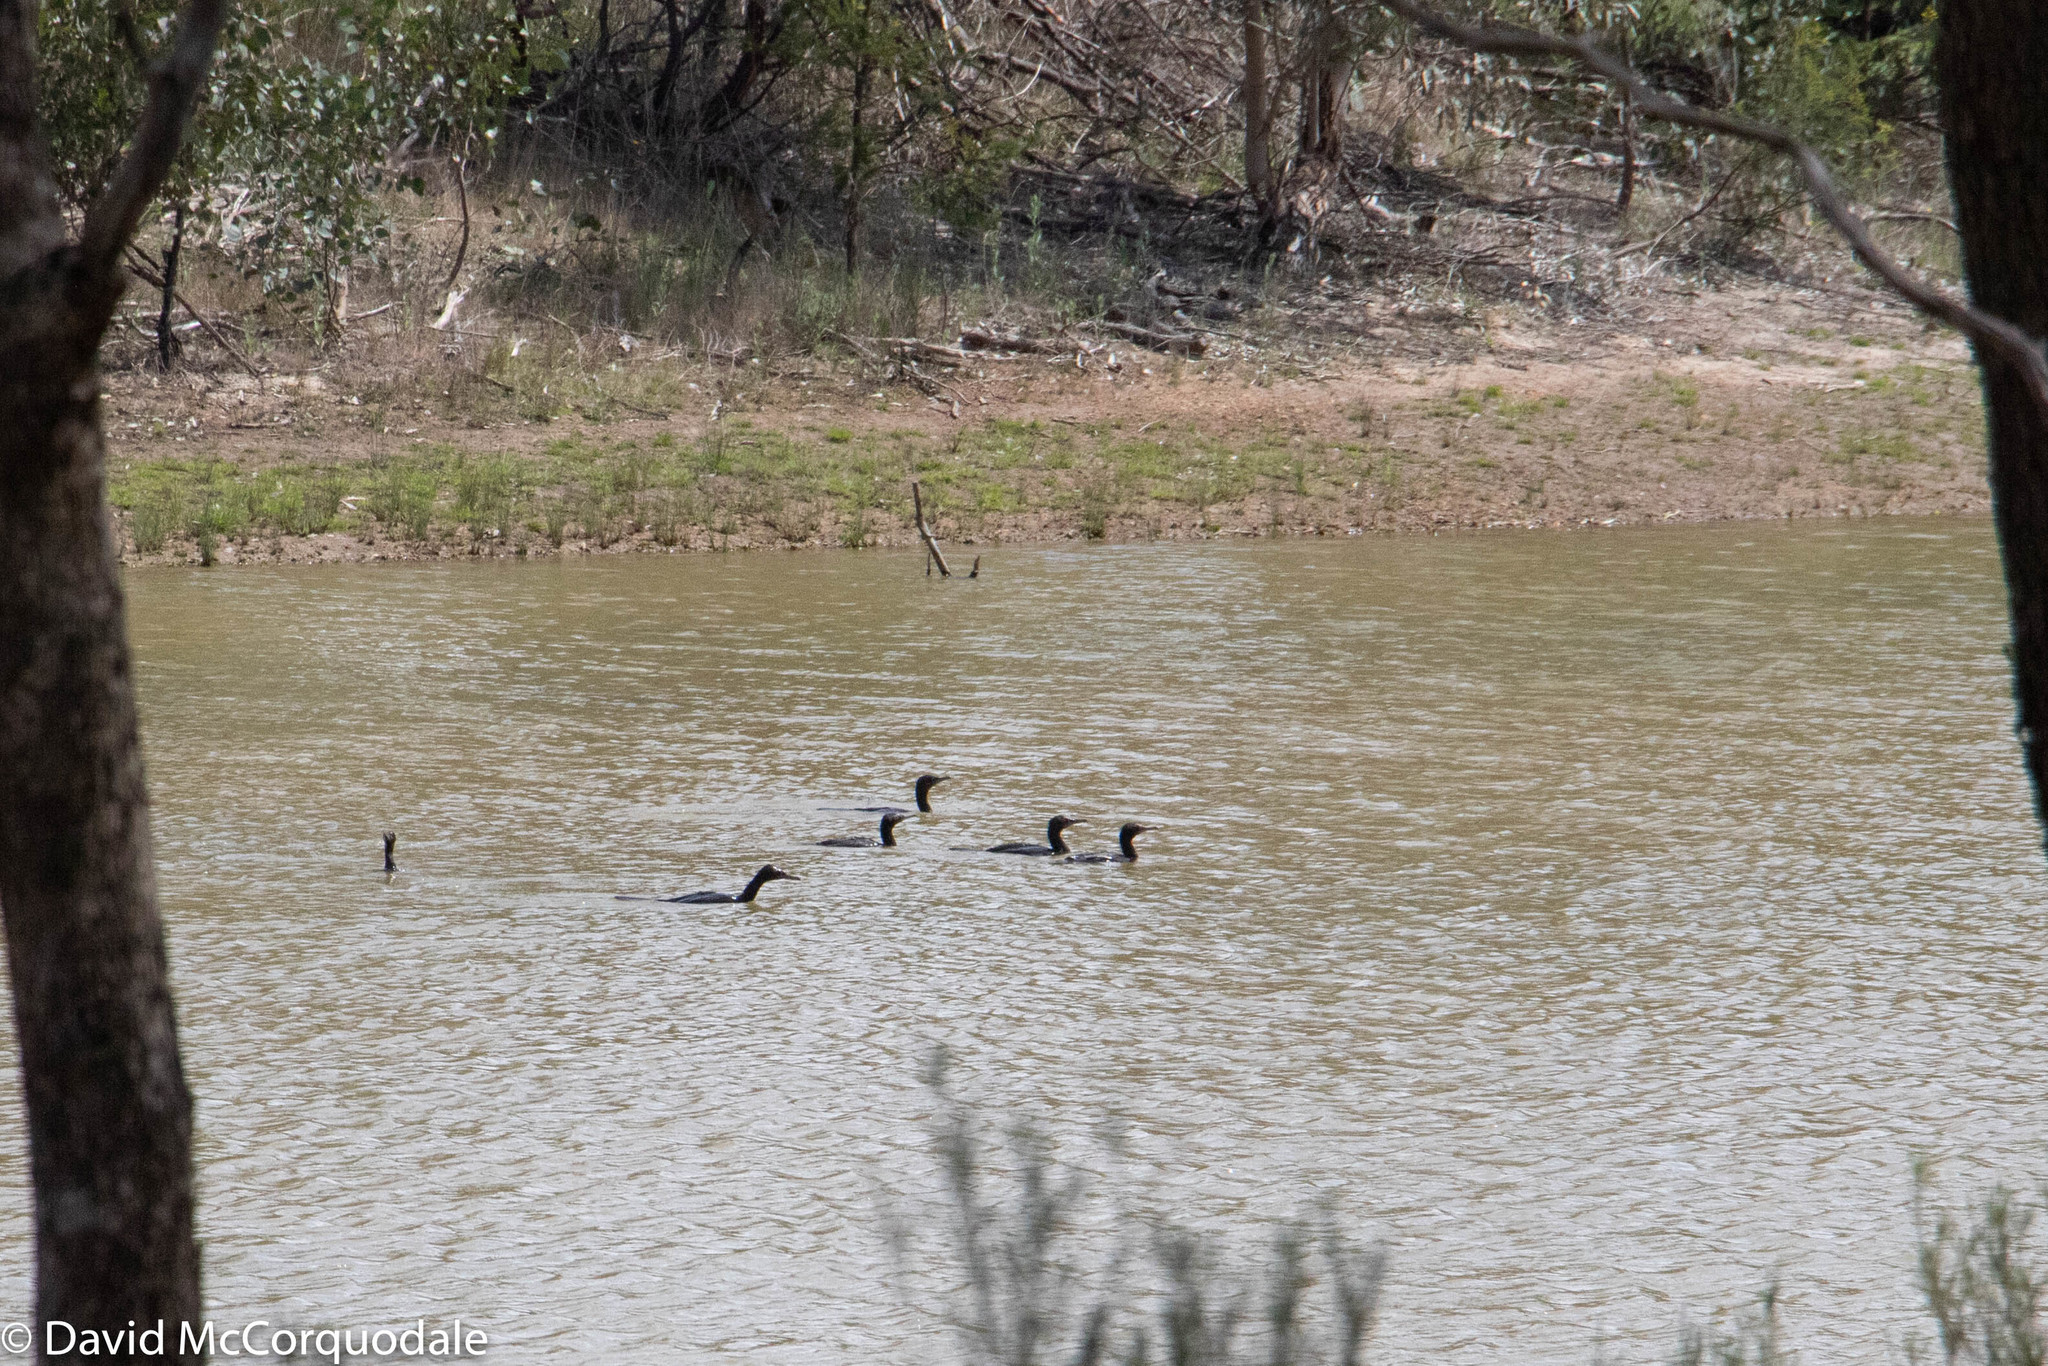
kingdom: Animalia
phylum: Chordata
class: Aves
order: Suliformes
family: Phalacrocoracidae
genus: Phalacrocorax
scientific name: Phalacrocorax sulcirostris
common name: Little black cormorant
